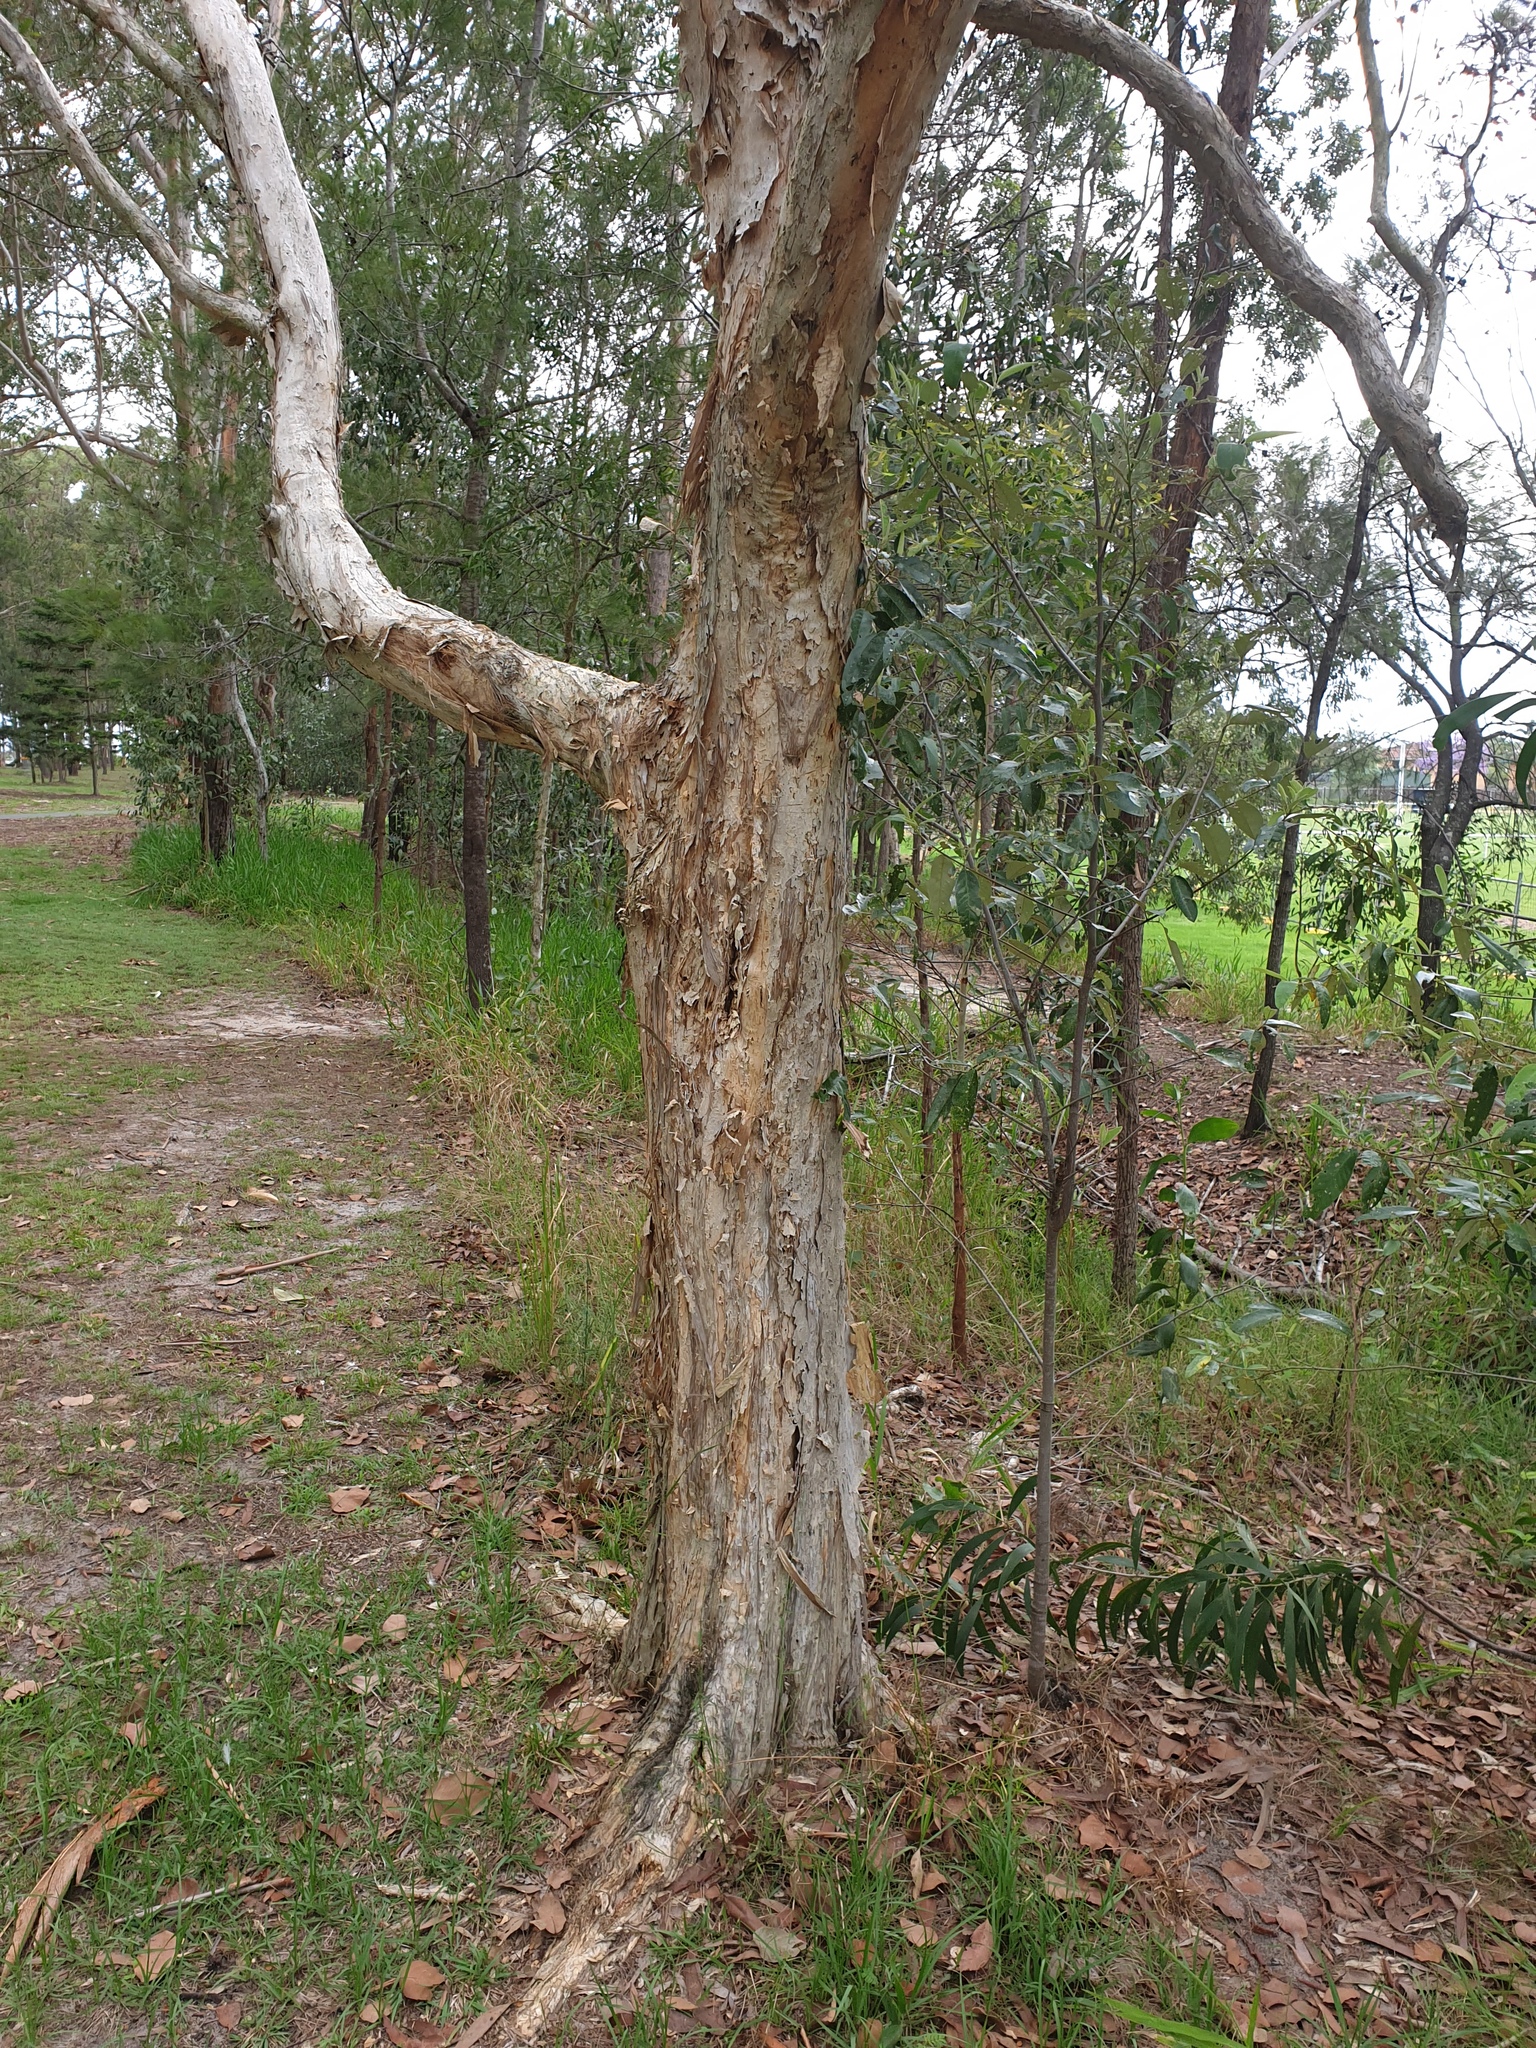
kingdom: Plantae
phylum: Tracheophyta
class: Magnoliopsida
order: Myrtales
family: Myrtaceae
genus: Melaleuca
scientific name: Melaleuca quinquenervia
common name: Punktree
